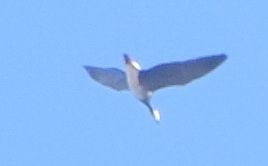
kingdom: Animalia
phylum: Chordata
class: Aves
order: Anseriformes
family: Anatidae
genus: Branta
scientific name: Branta leucopsis
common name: Barnacle goose
